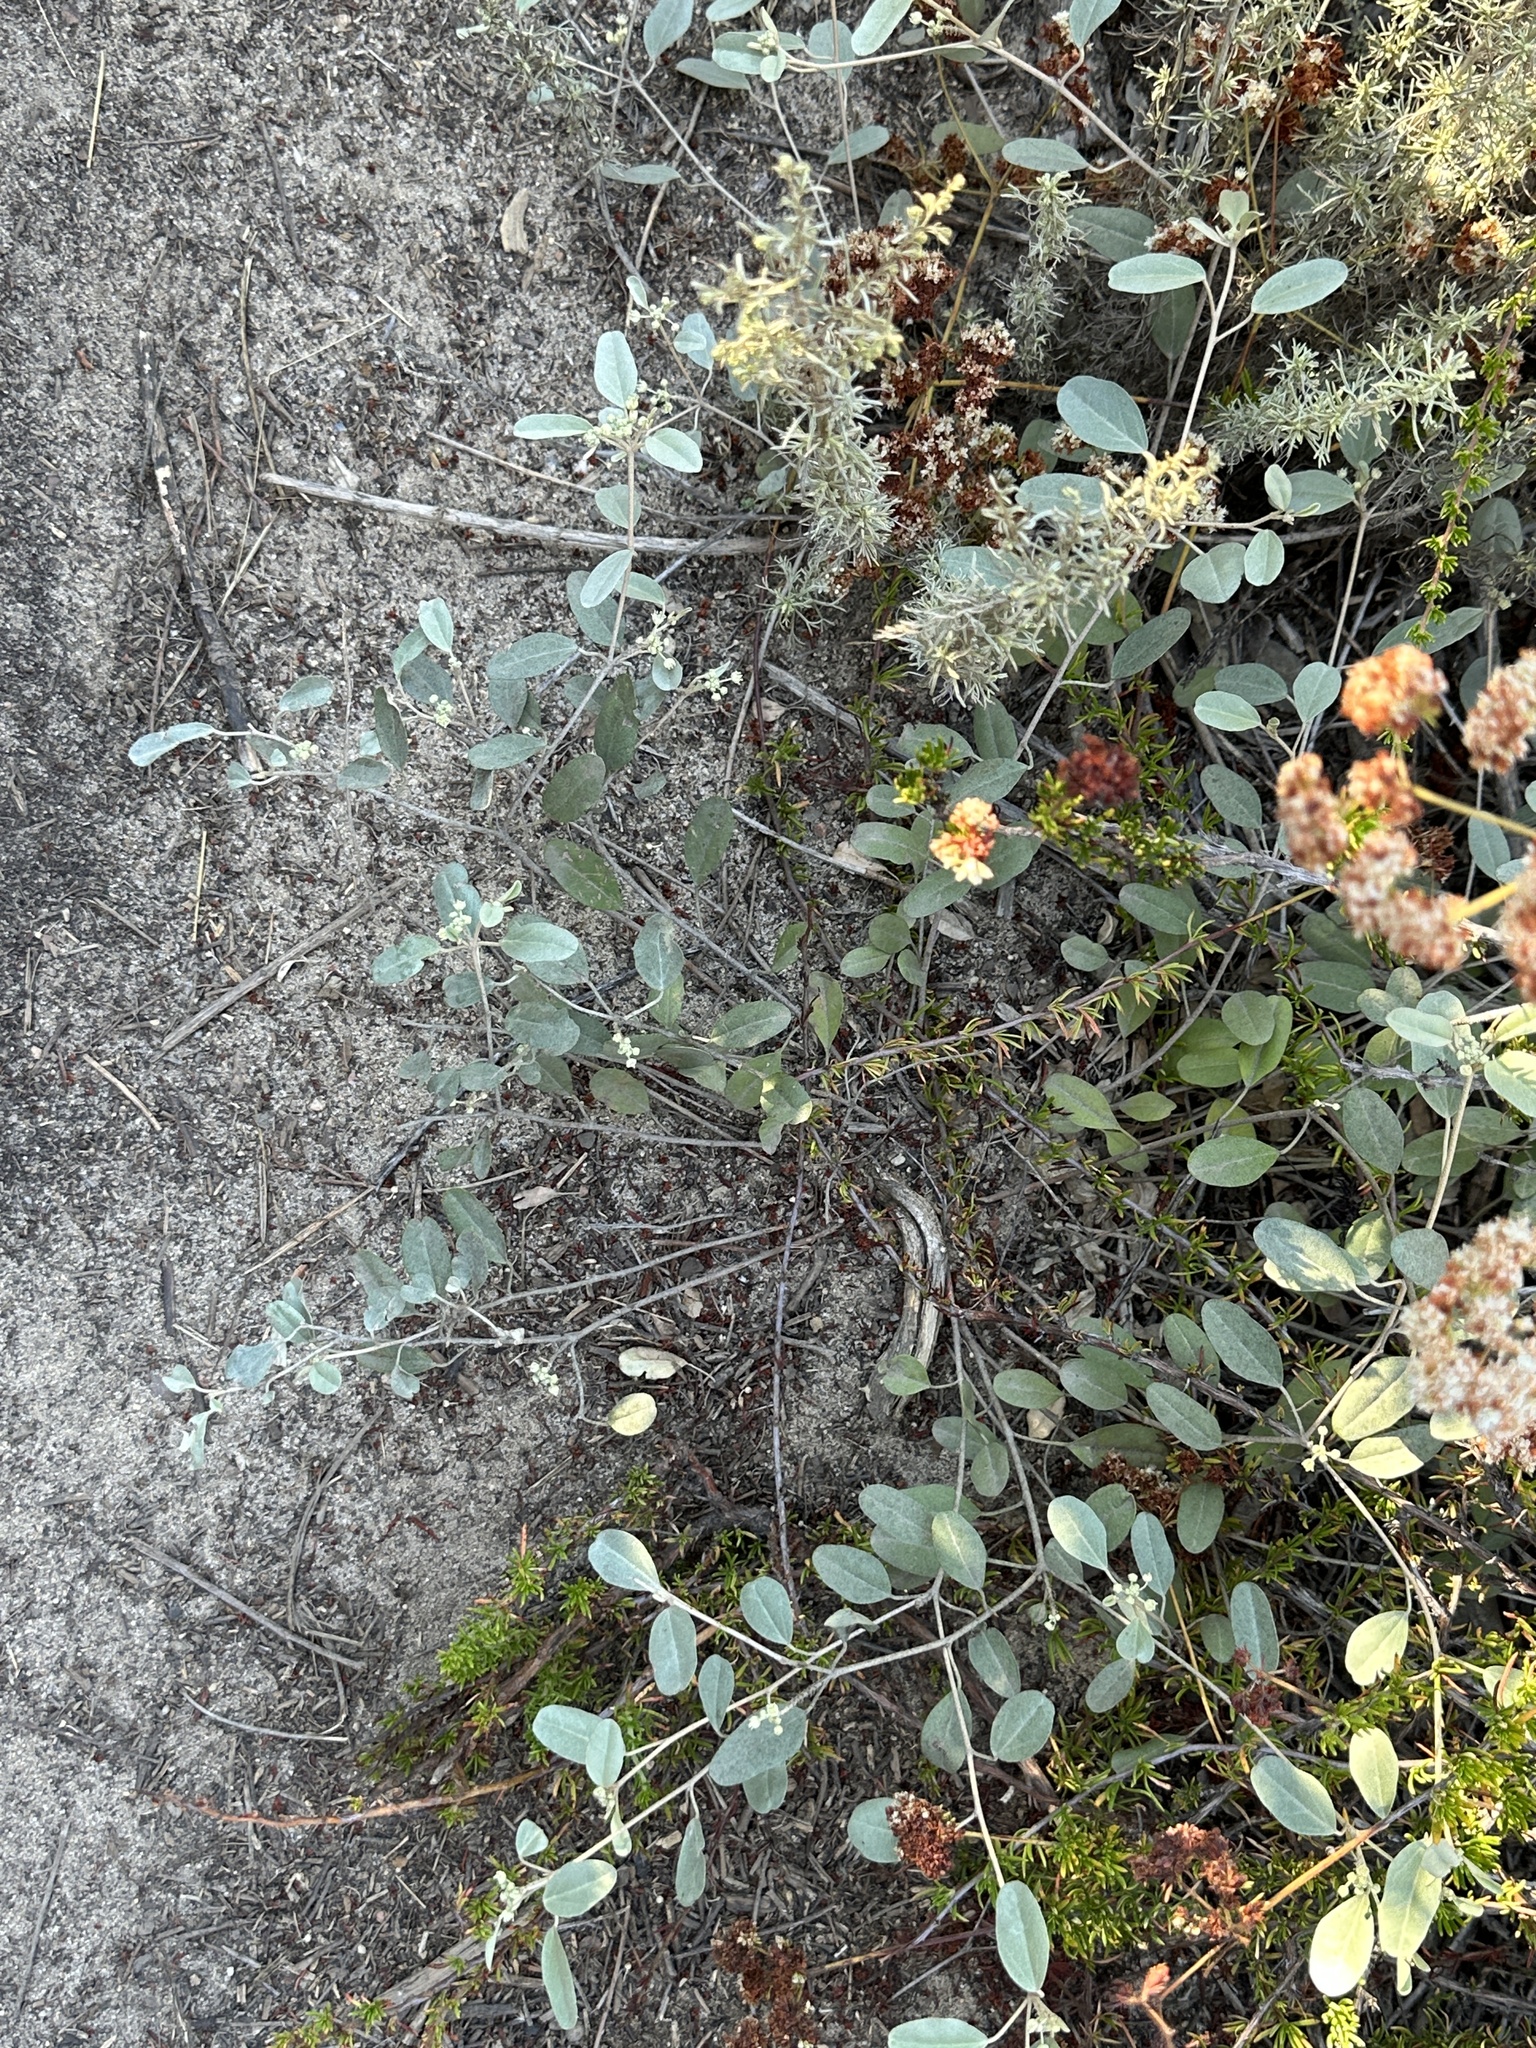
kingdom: Plantae
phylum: Tracheophyta
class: Magnoliopsida
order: Malpighiales
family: Euphorbiaceae
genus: Croton
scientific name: Croton californicus
